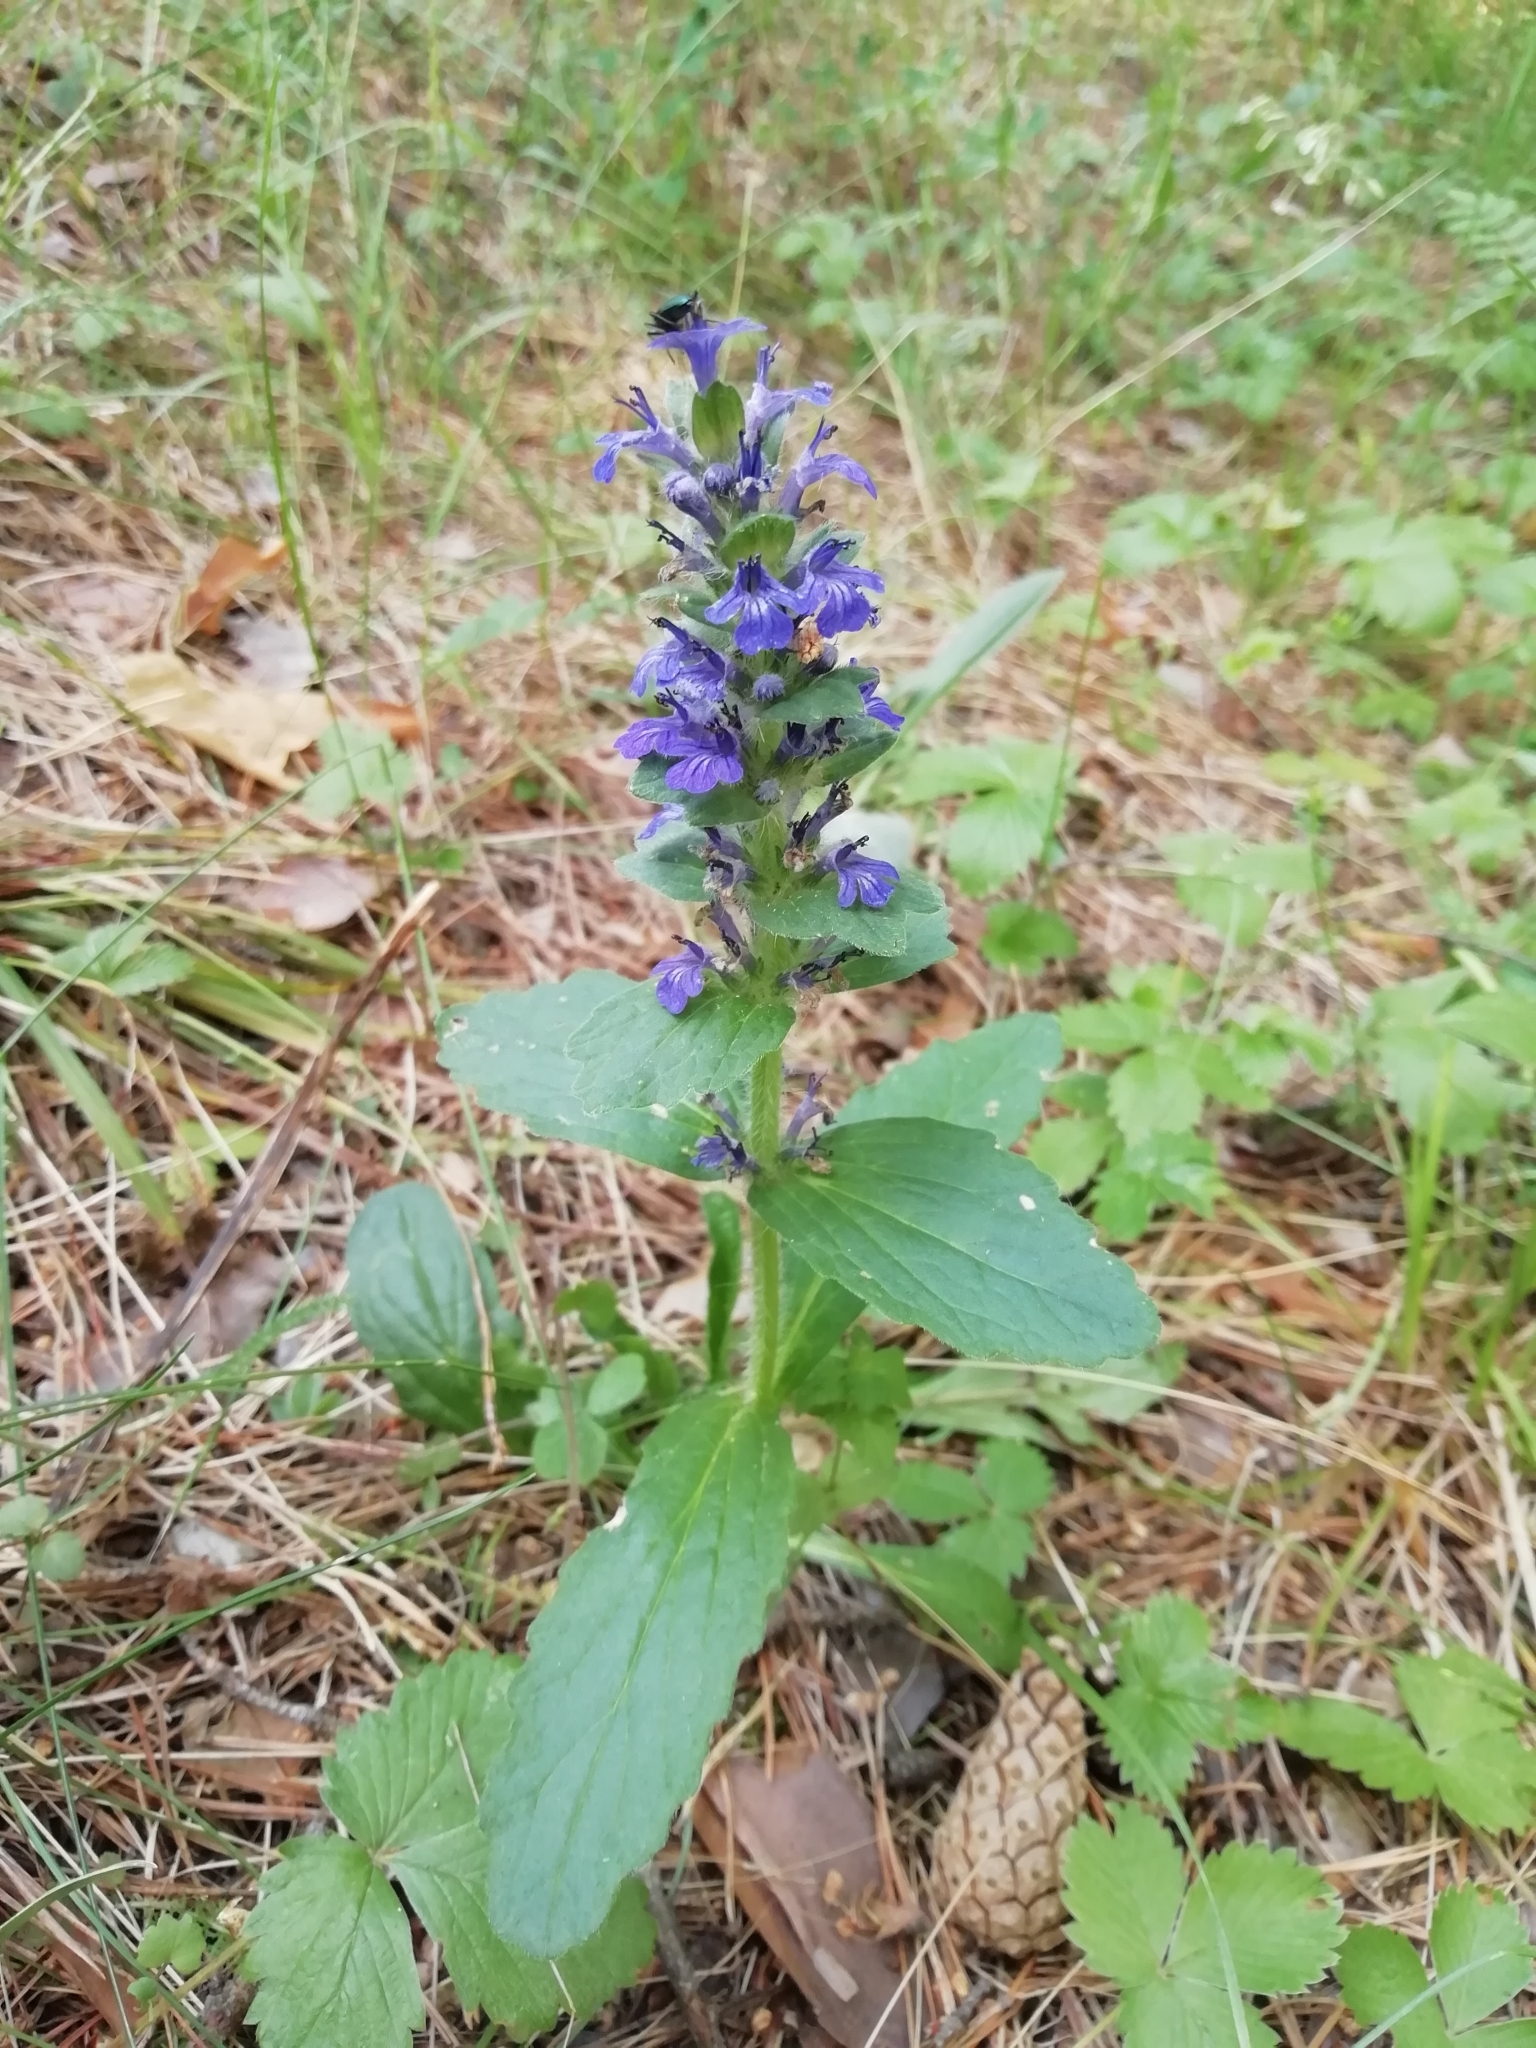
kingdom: Plantae
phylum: Tracheophyta
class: Magnoliopsida
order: Lamiales
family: Lamiaceae
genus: Ajuga
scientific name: Ajuga genevensis
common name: Blue bugle
